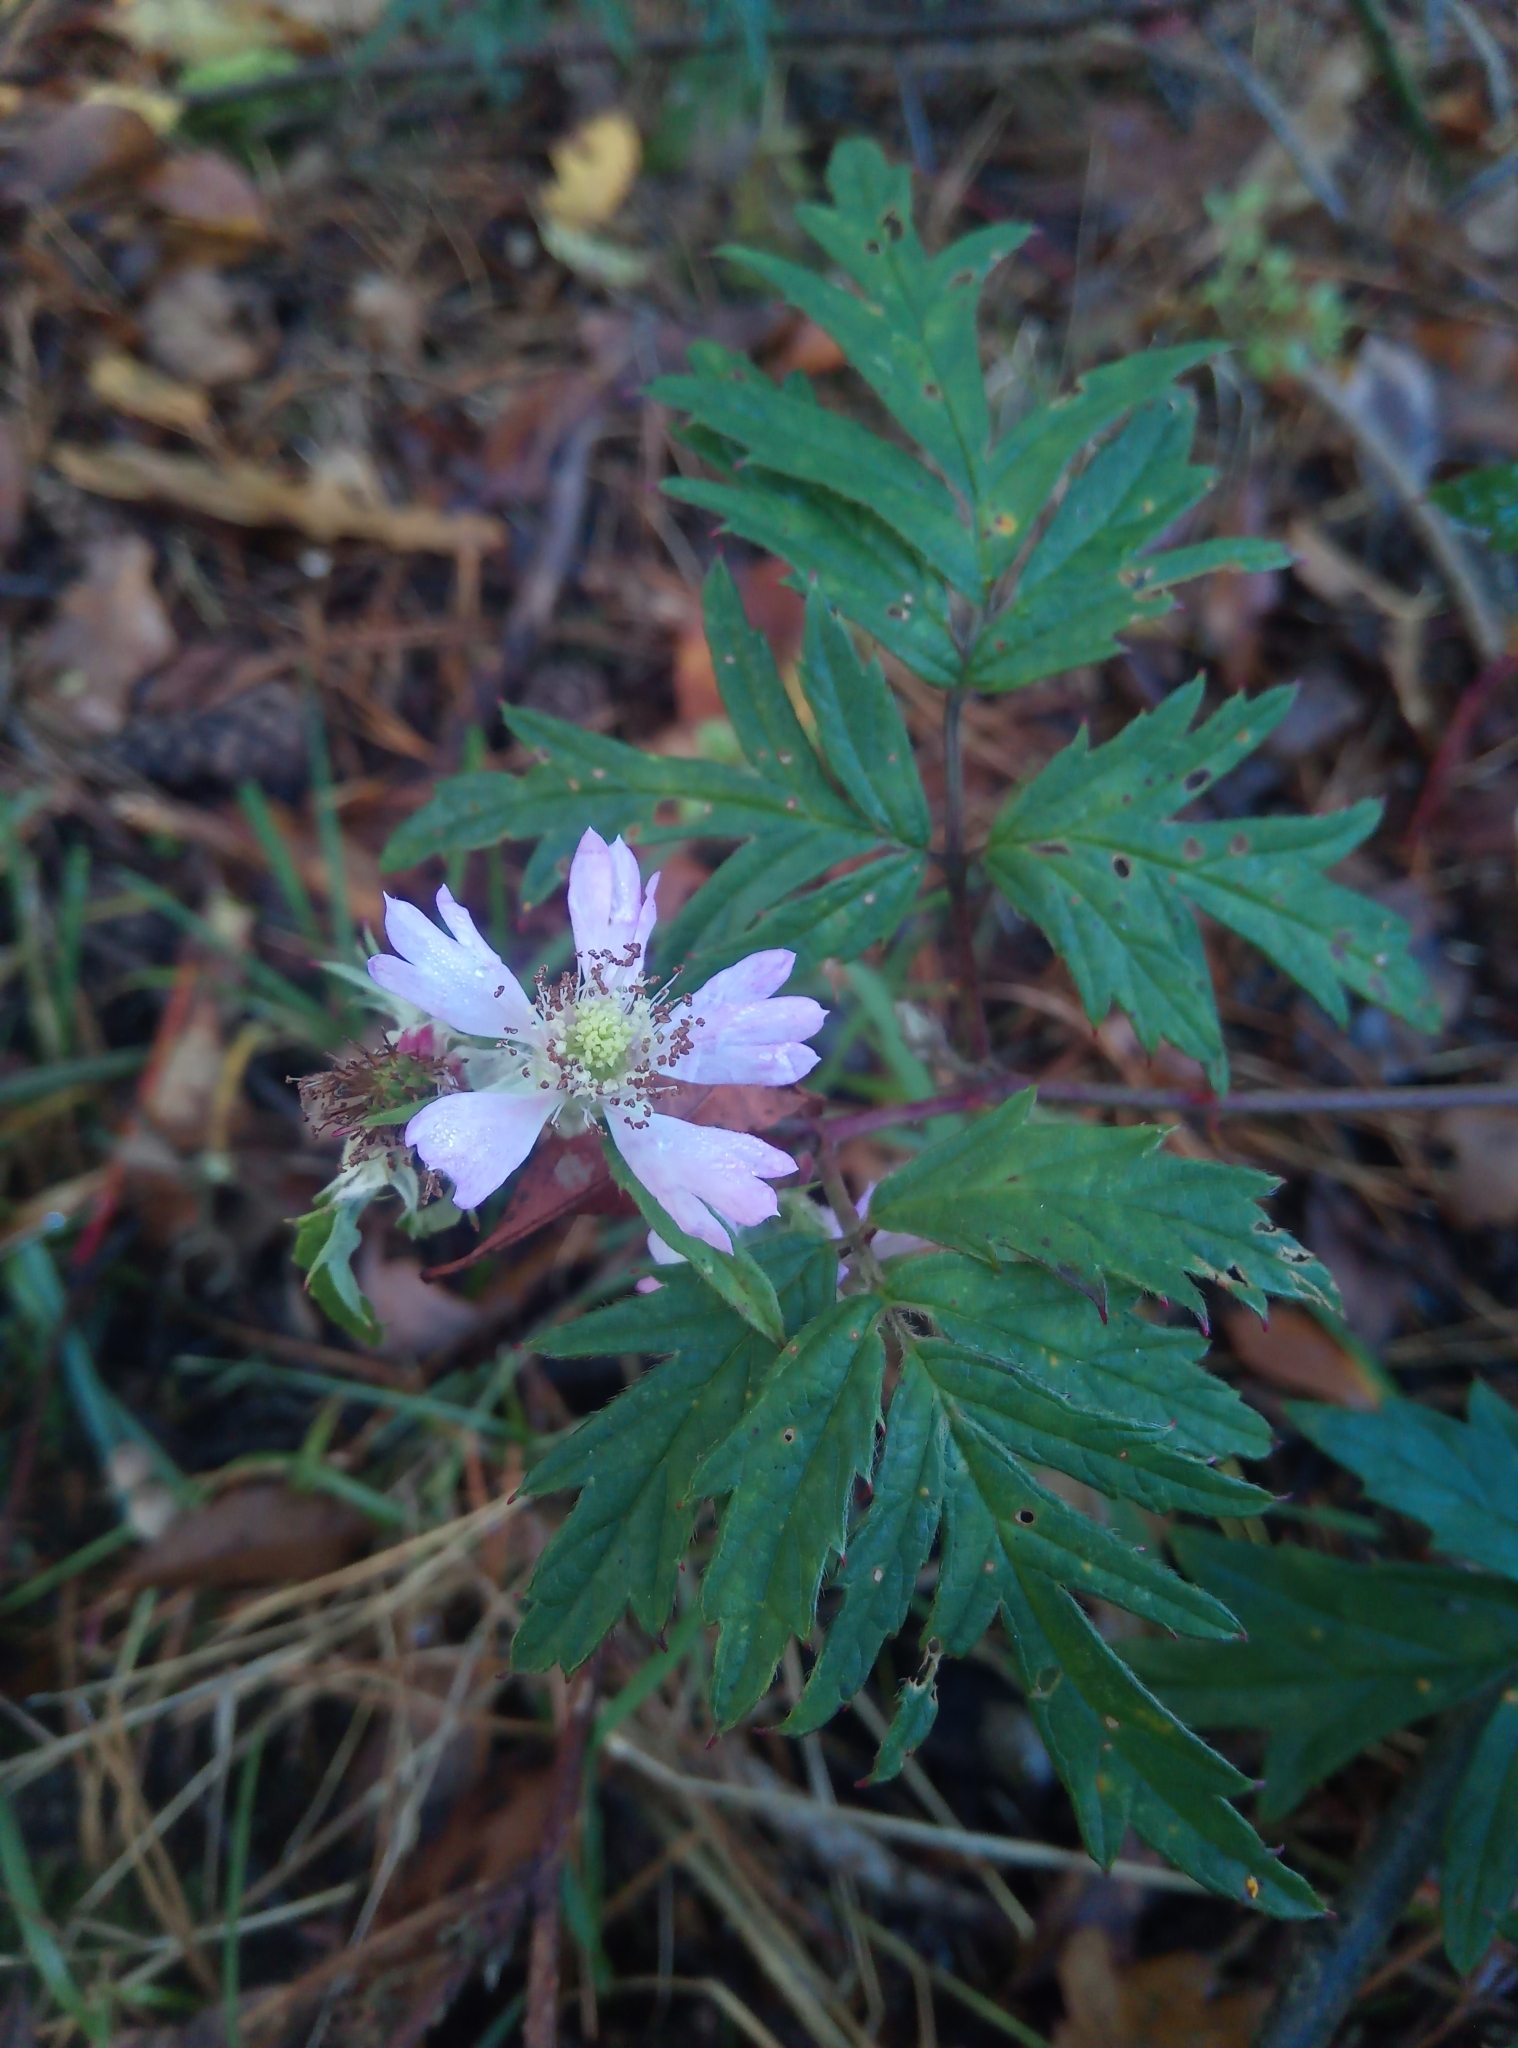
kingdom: Plantae
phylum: Tracheophyta
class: Magnoliopsida
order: Rosales
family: Rosaceae
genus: Rubus
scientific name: Rubus laciniatus
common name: Evergreen blackberry
